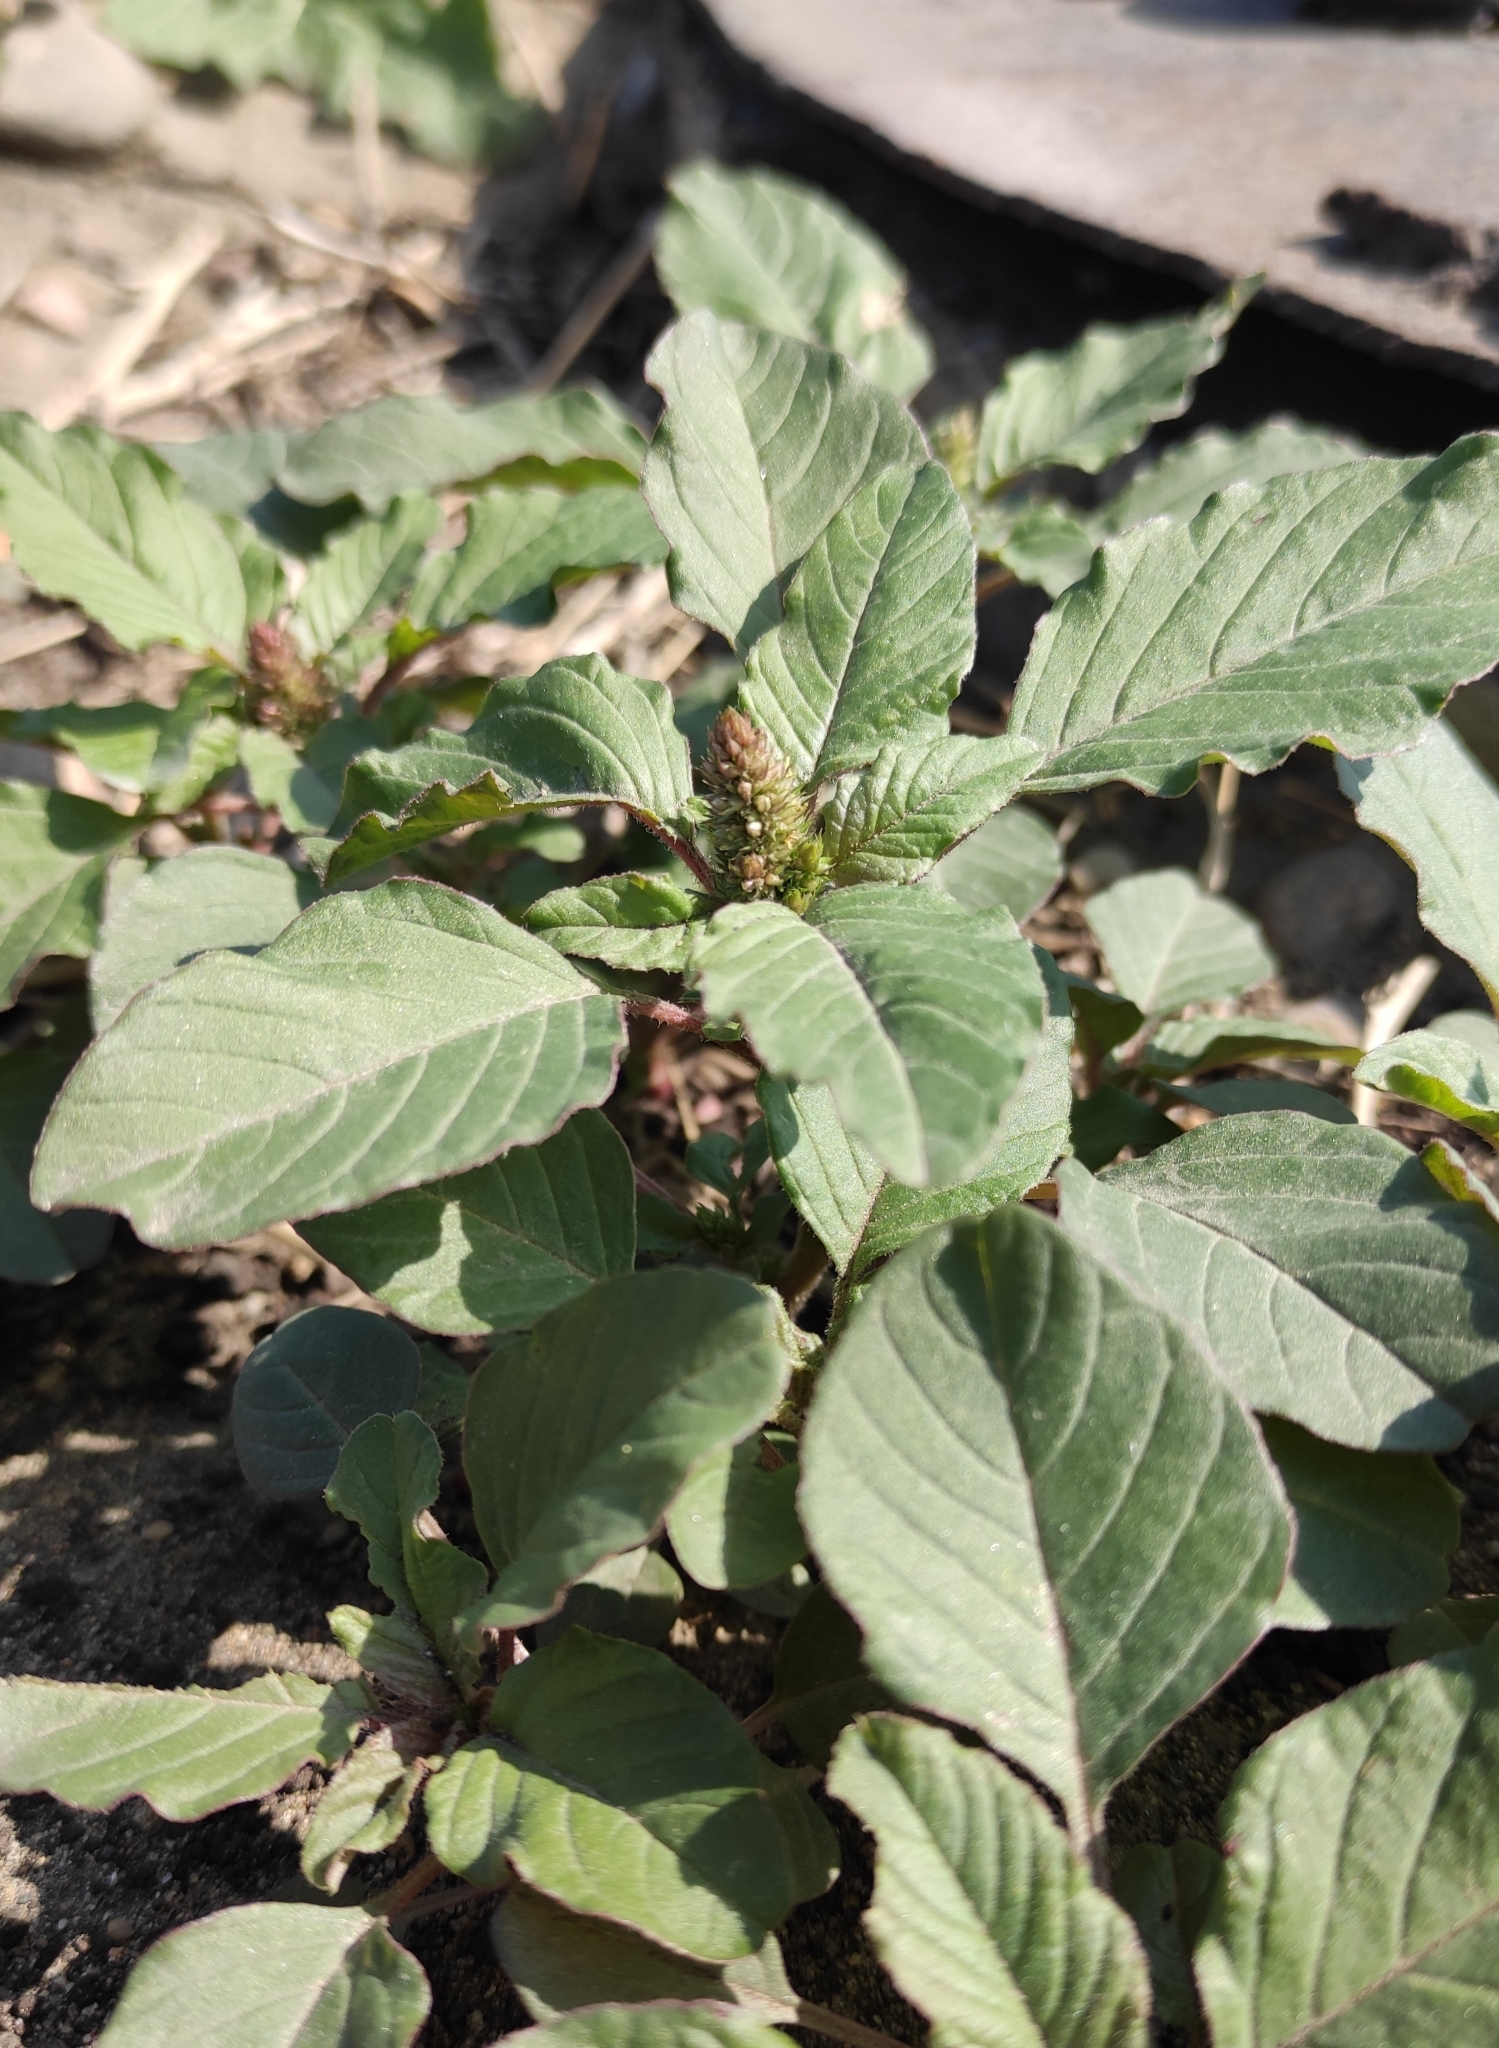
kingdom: Plantae
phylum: Tracheophyta
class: Magnoliopsida
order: Caryophyllales
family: Amaranthaceae
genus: Amaranthus
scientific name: Amaranthus retroflexus
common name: Redroot amaranth
